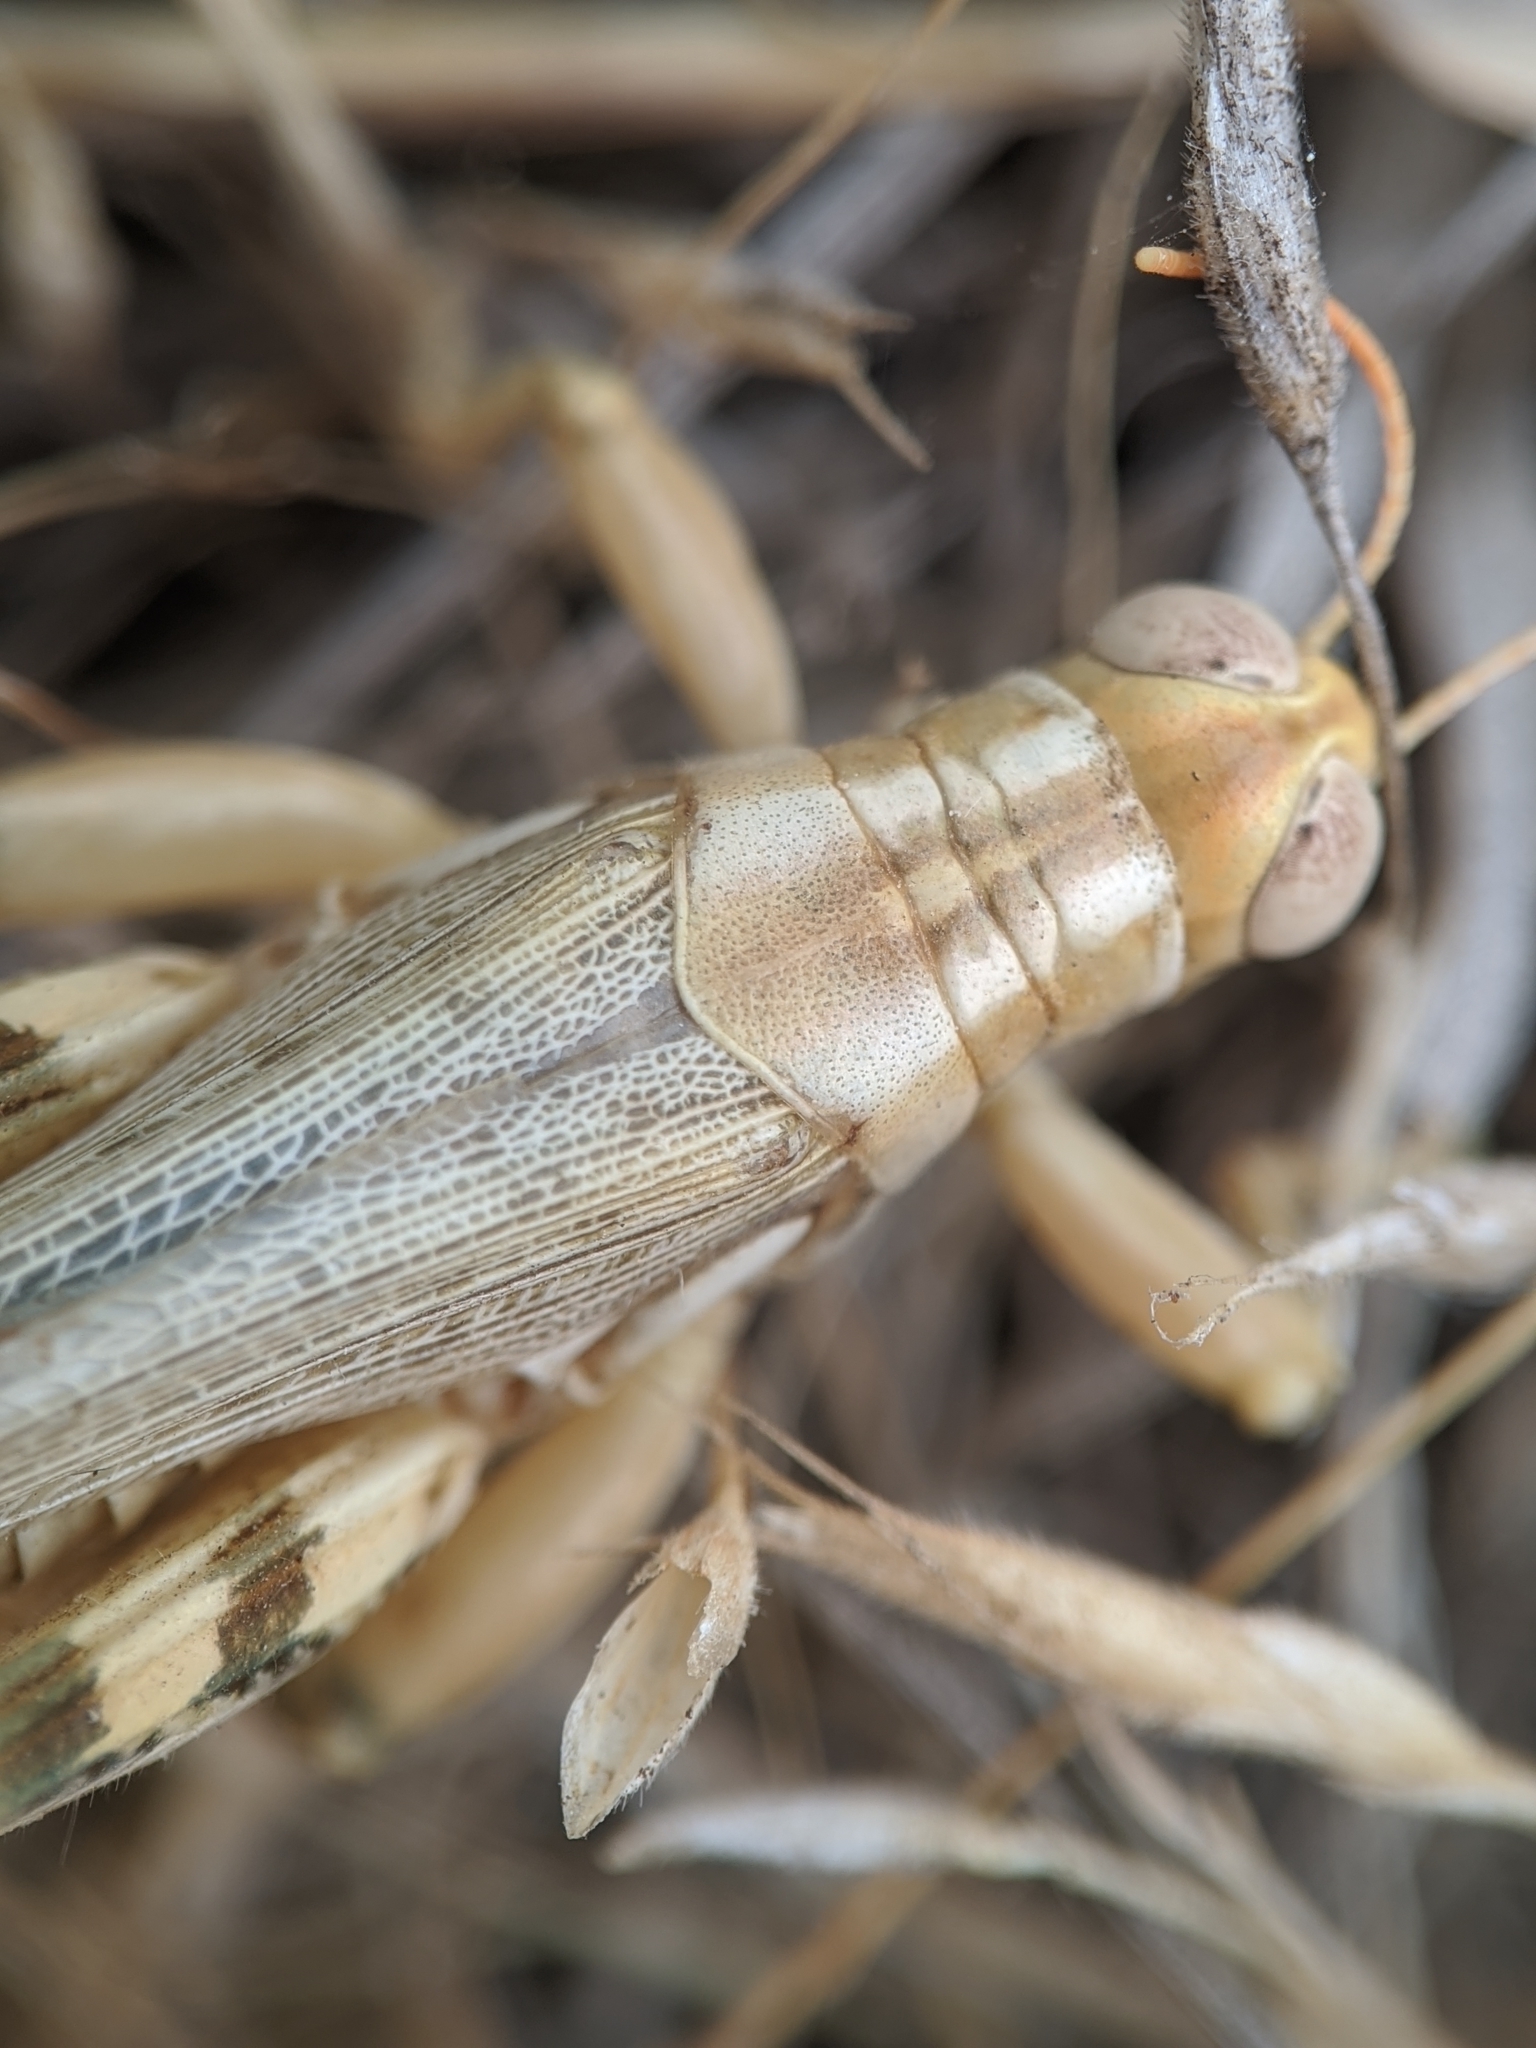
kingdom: Animalia
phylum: Arthropoda
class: Insecta
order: Orthoptera
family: Acrididae
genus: Aeoloplides
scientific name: Aeoloplides californicus
